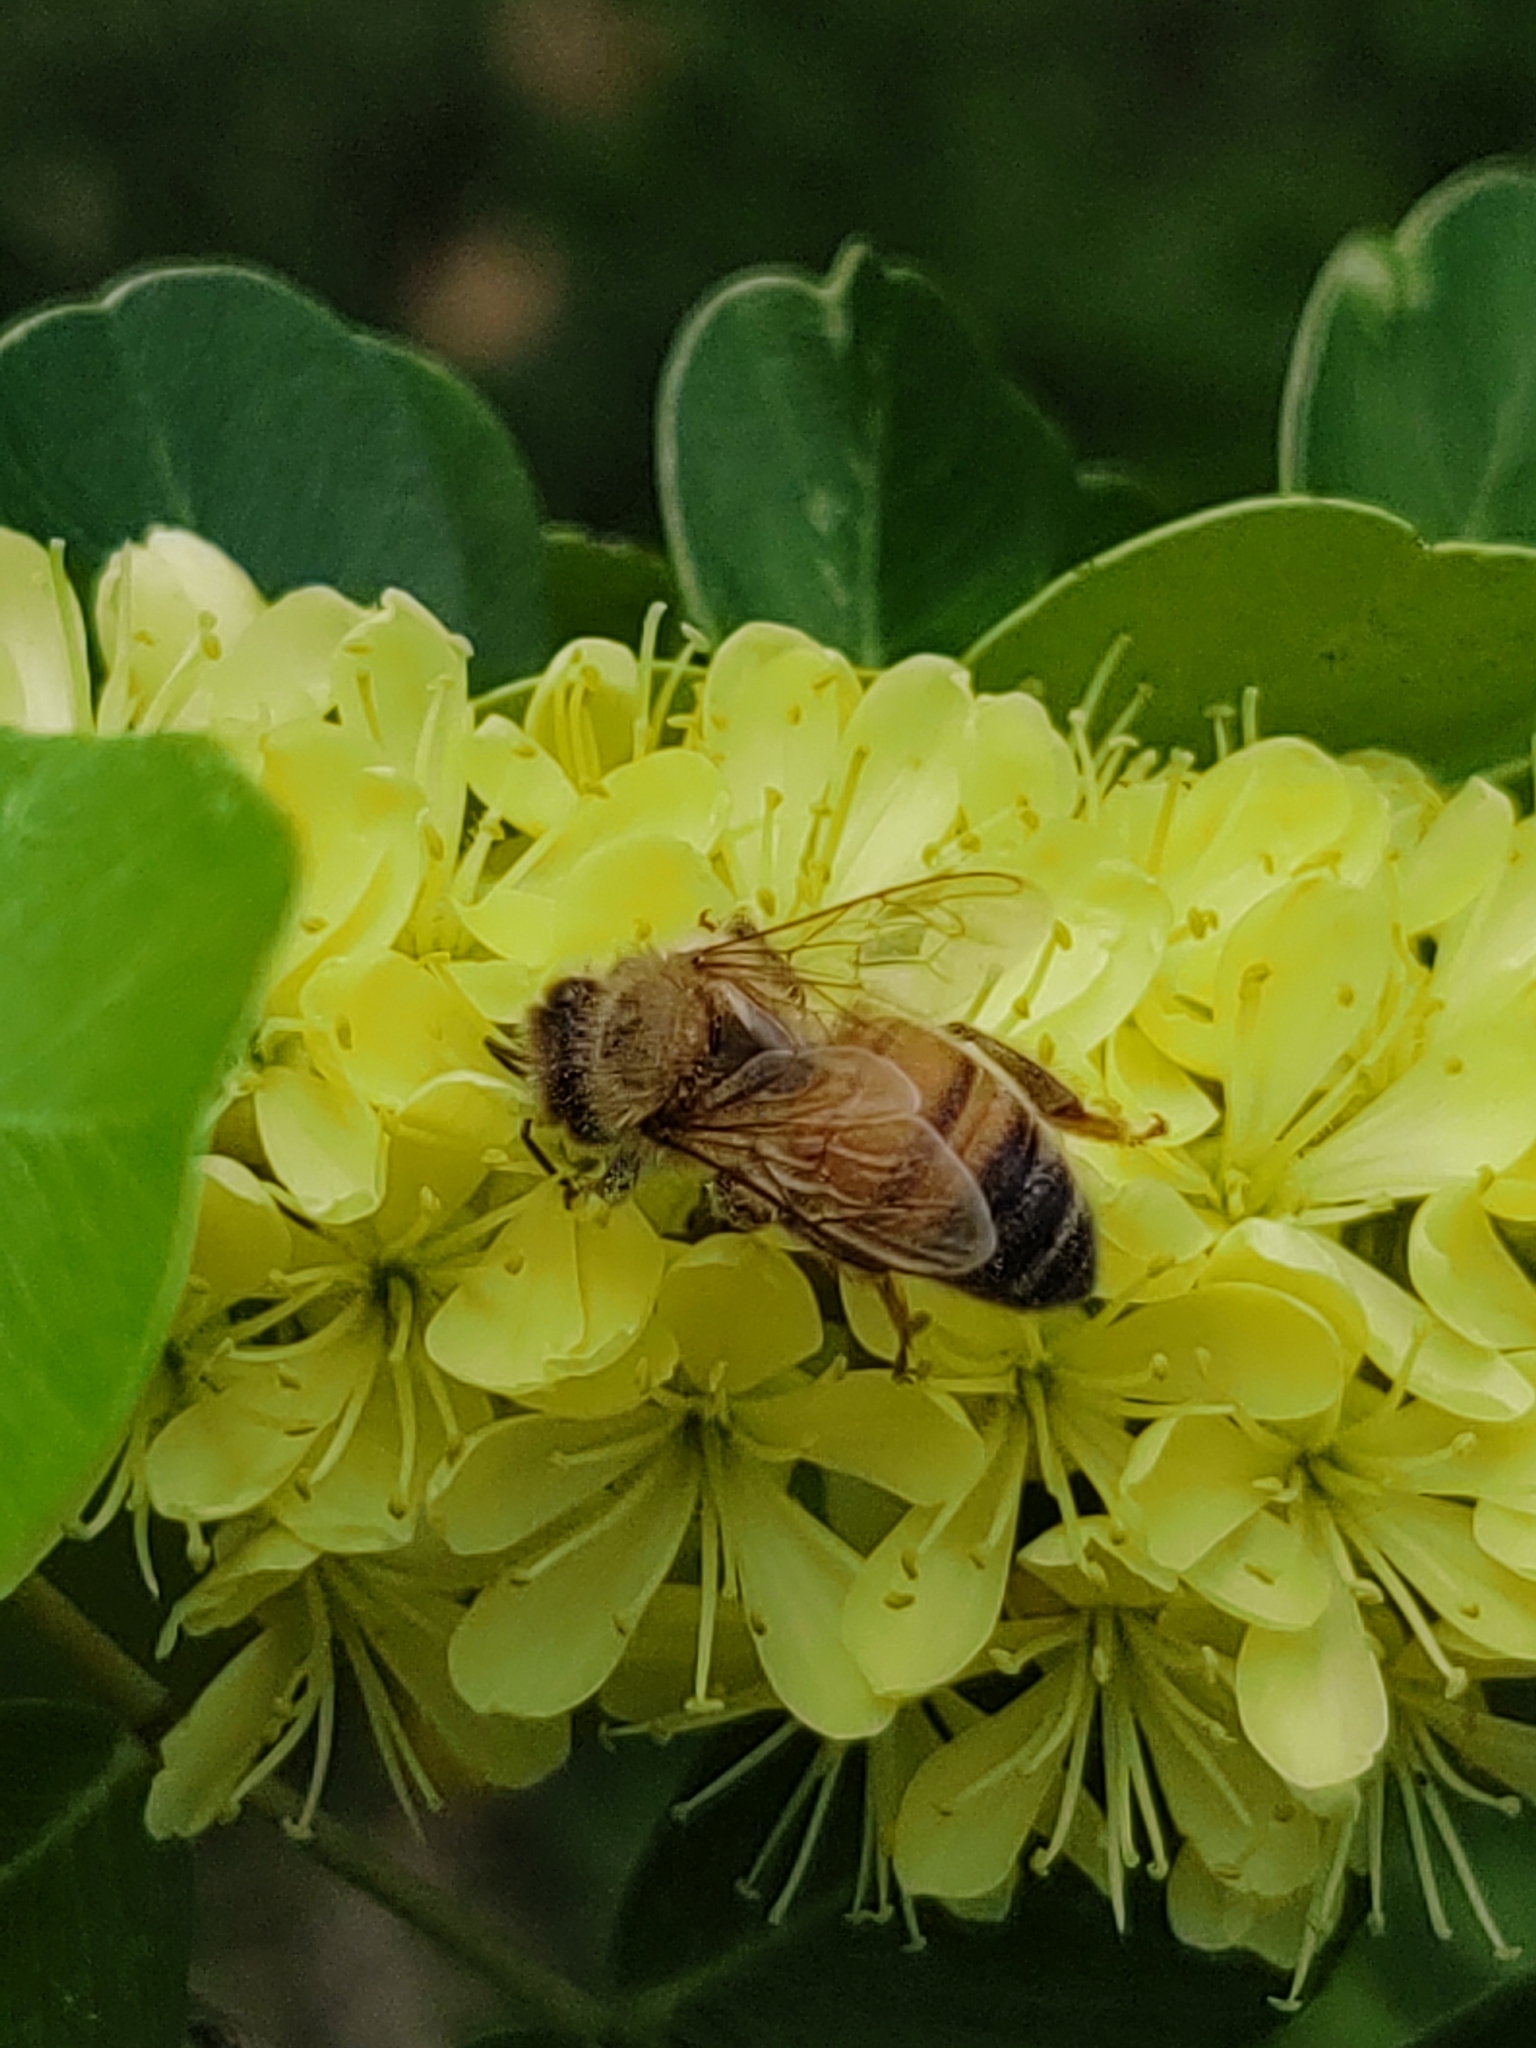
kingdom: Animalia
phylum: Arthropoda
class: Insecta
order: Hymenoptera
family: Apidae
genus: Apis
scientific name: Apis mellifera
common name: Honey bee
